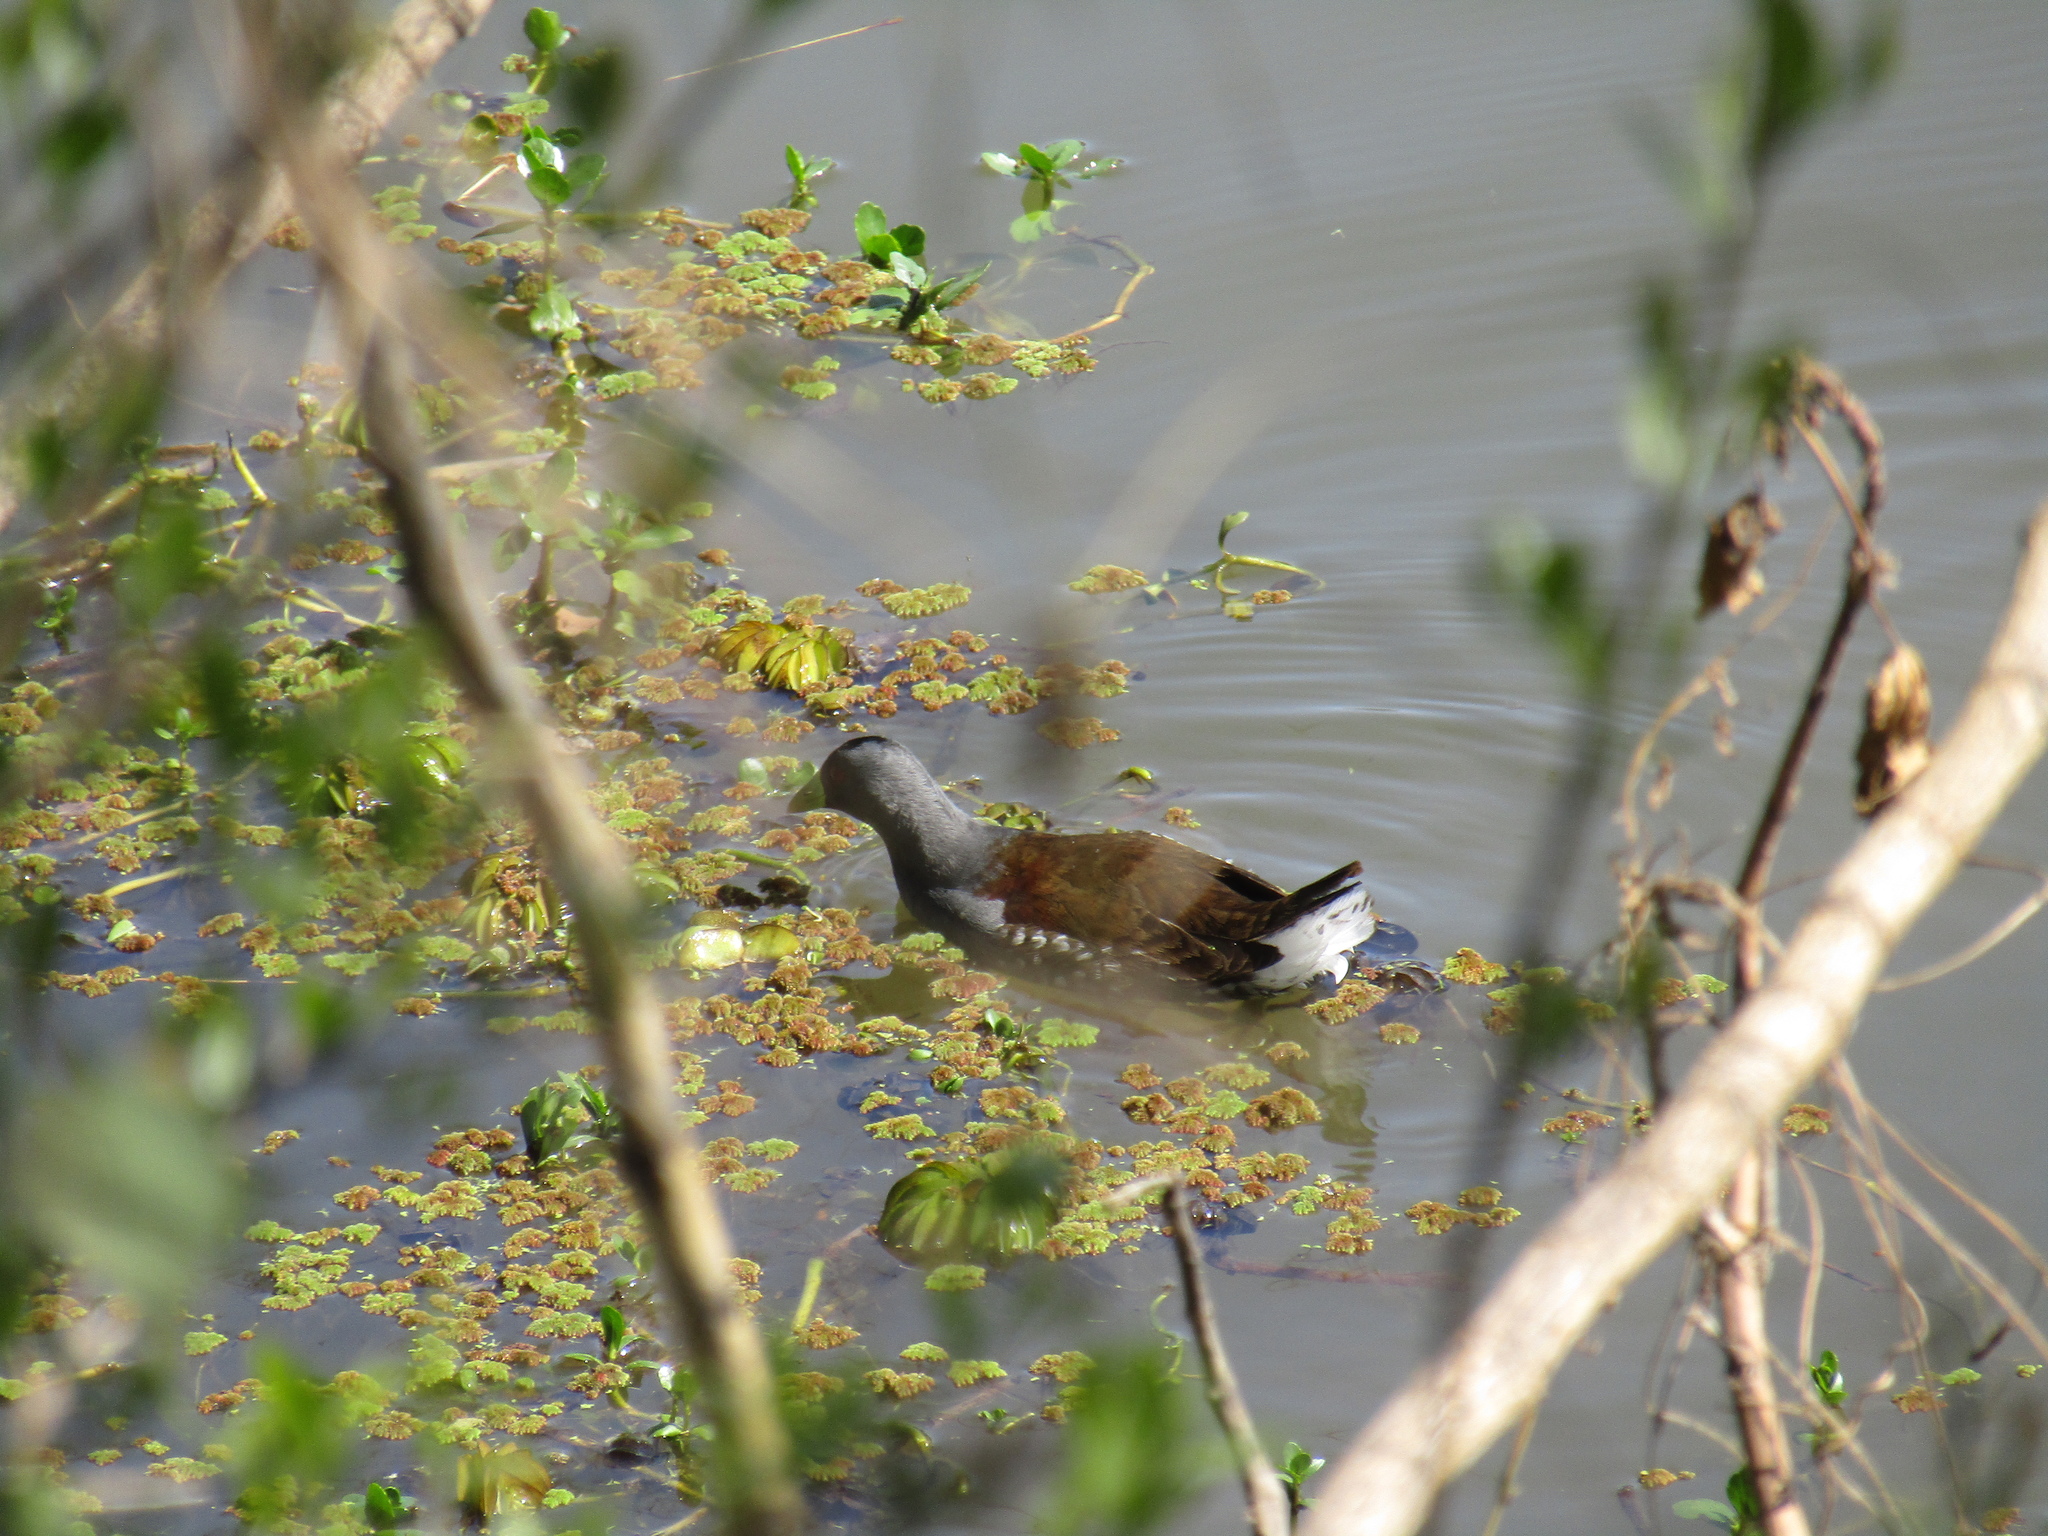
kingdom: Animalia
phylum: Chordata
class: Aves
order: Gruiformes
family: Rallidae
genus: Gallinula
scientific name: Gallinula melanops
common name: Spot-flanked gallinule
